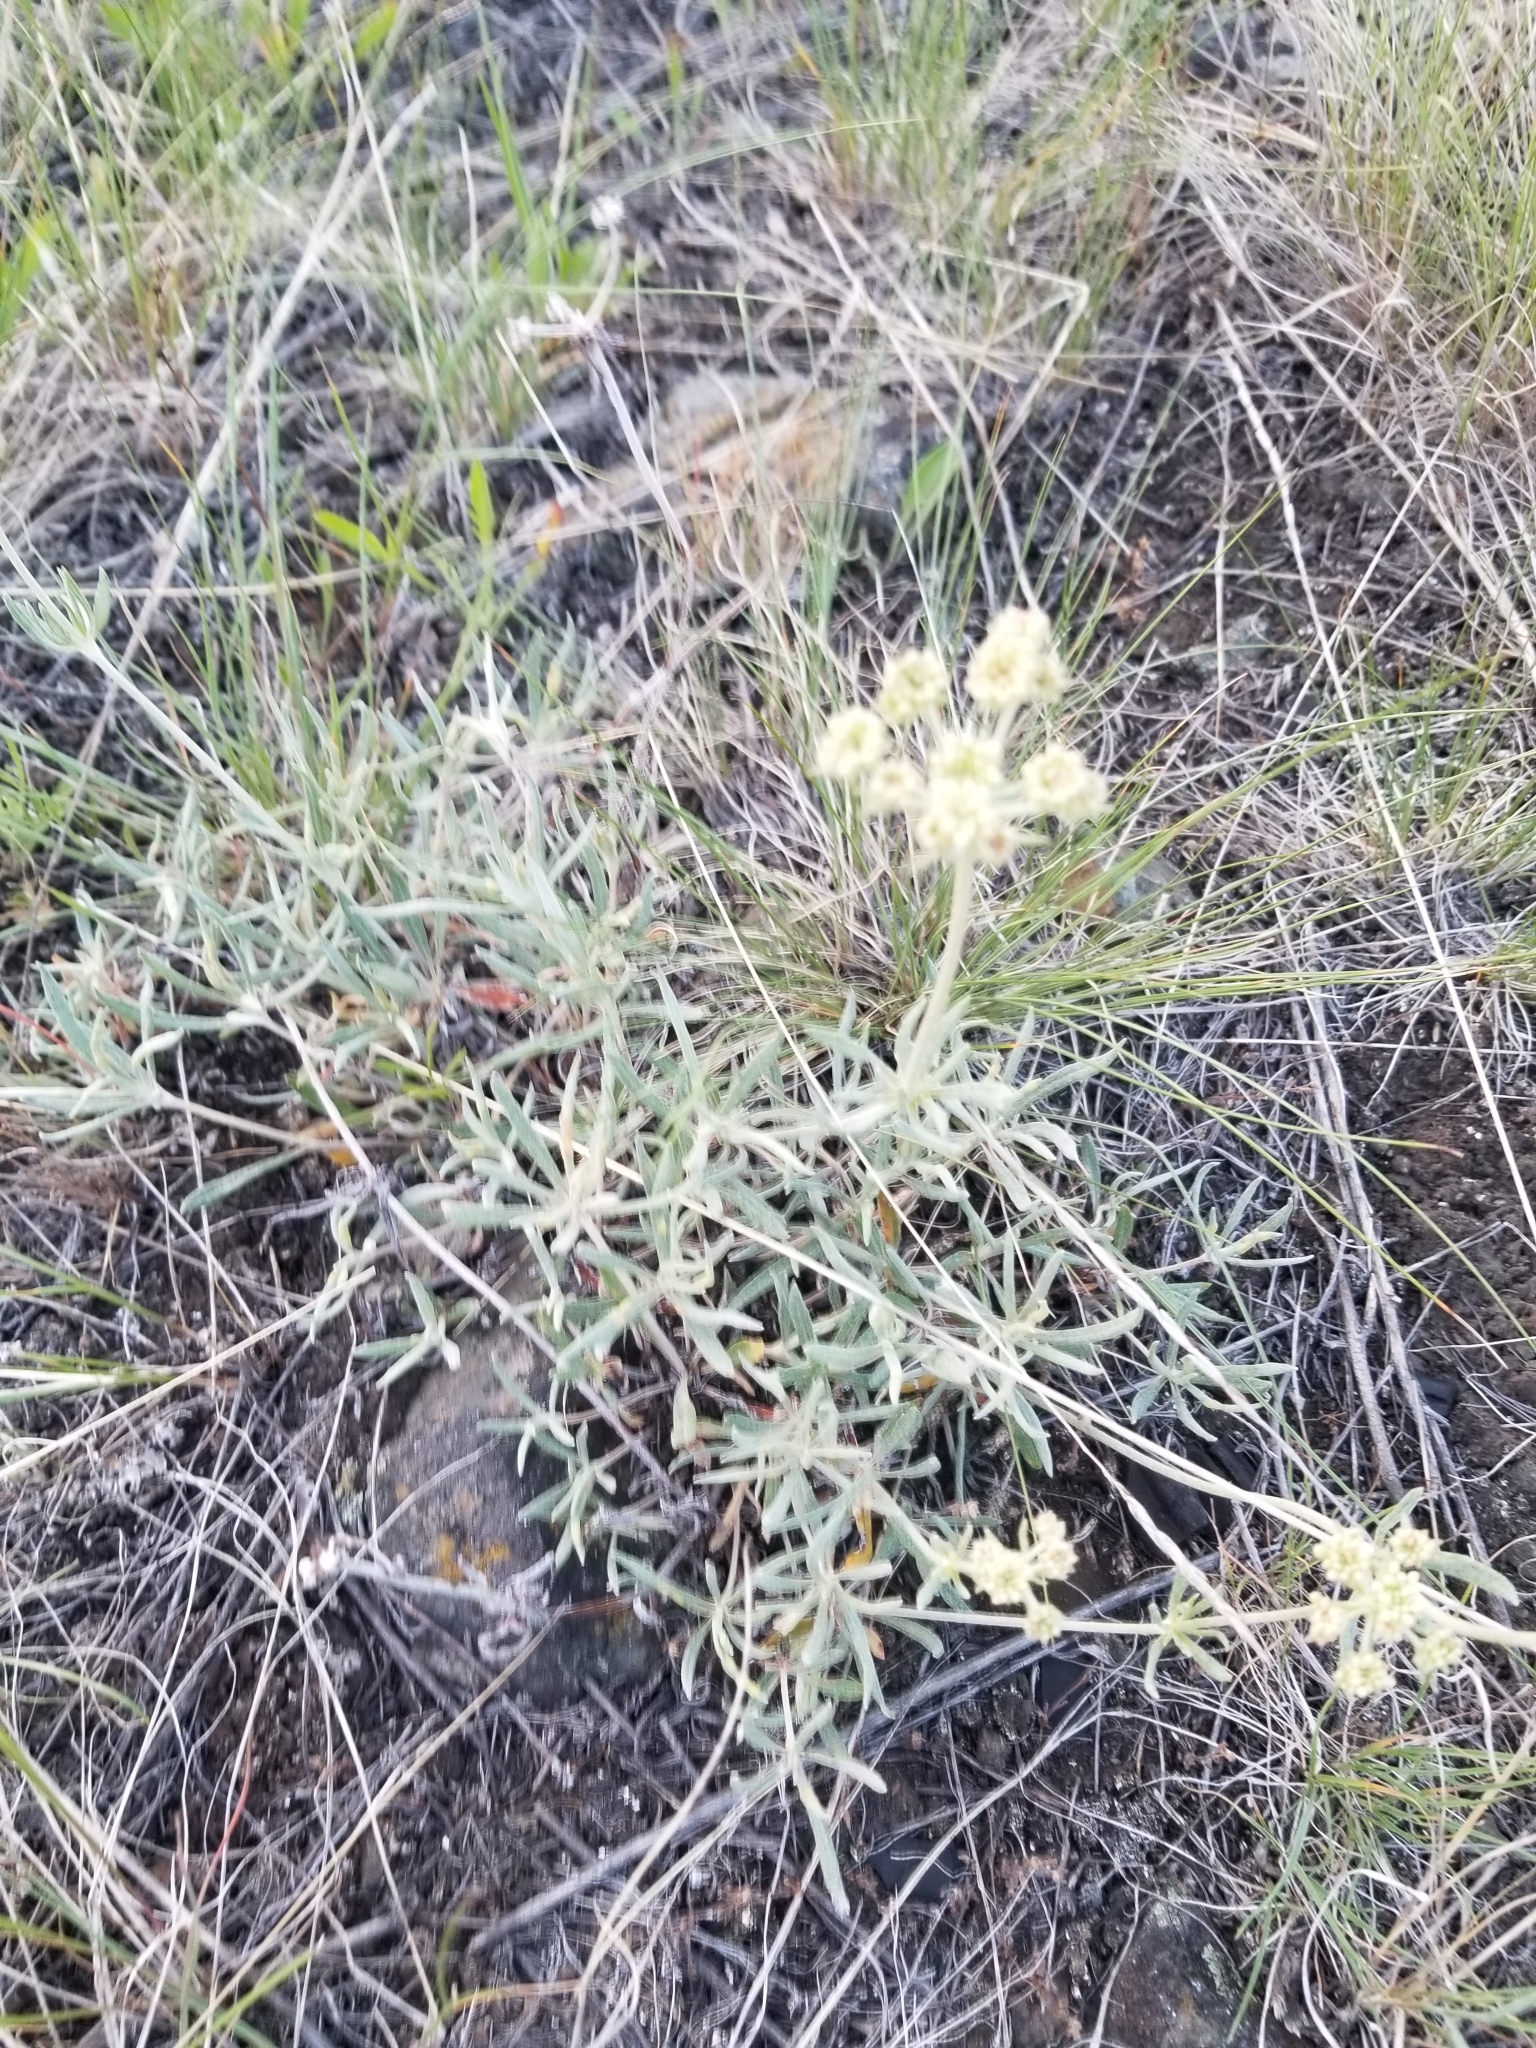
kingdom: Plantae
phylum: Tracheophyta
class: Magnoliopsida
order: Caryophyllales
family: Polygonaceae
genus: Eriogonum
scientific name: Eriogonum heracleoides
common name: Wyeth's buckwheat
